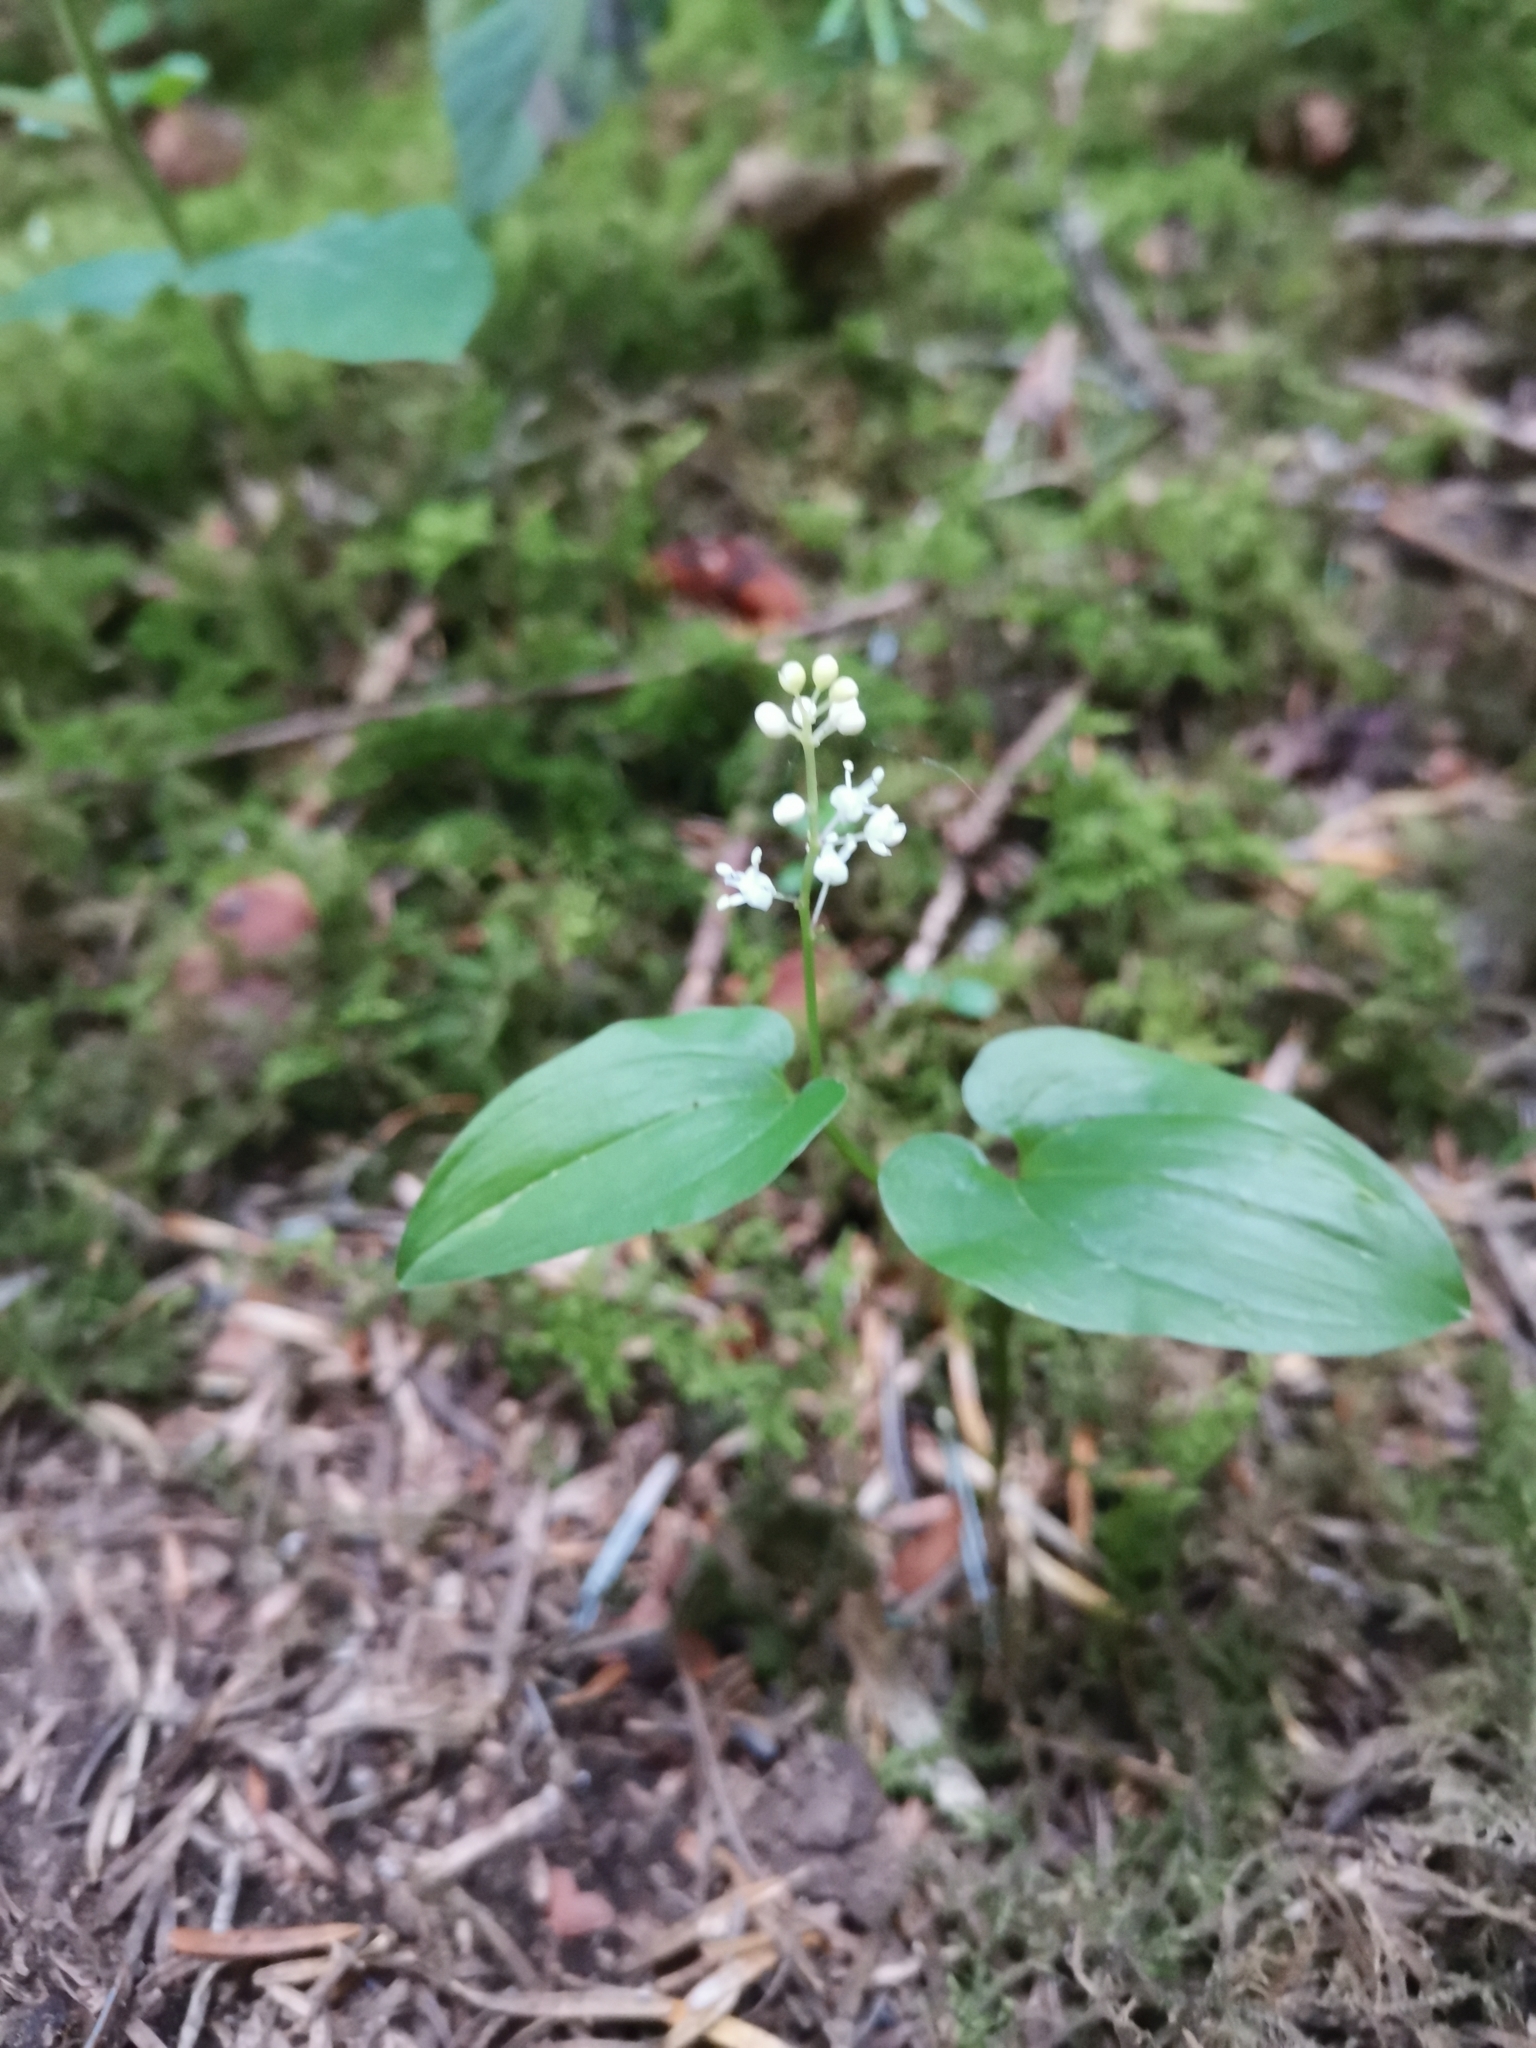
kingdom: Plantae
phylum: Tracheophyta
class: Liliopsida
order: Asparagales
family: Asparagaceae
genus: Maianthemum
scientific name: Maianthemum bifolium
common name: May lily
